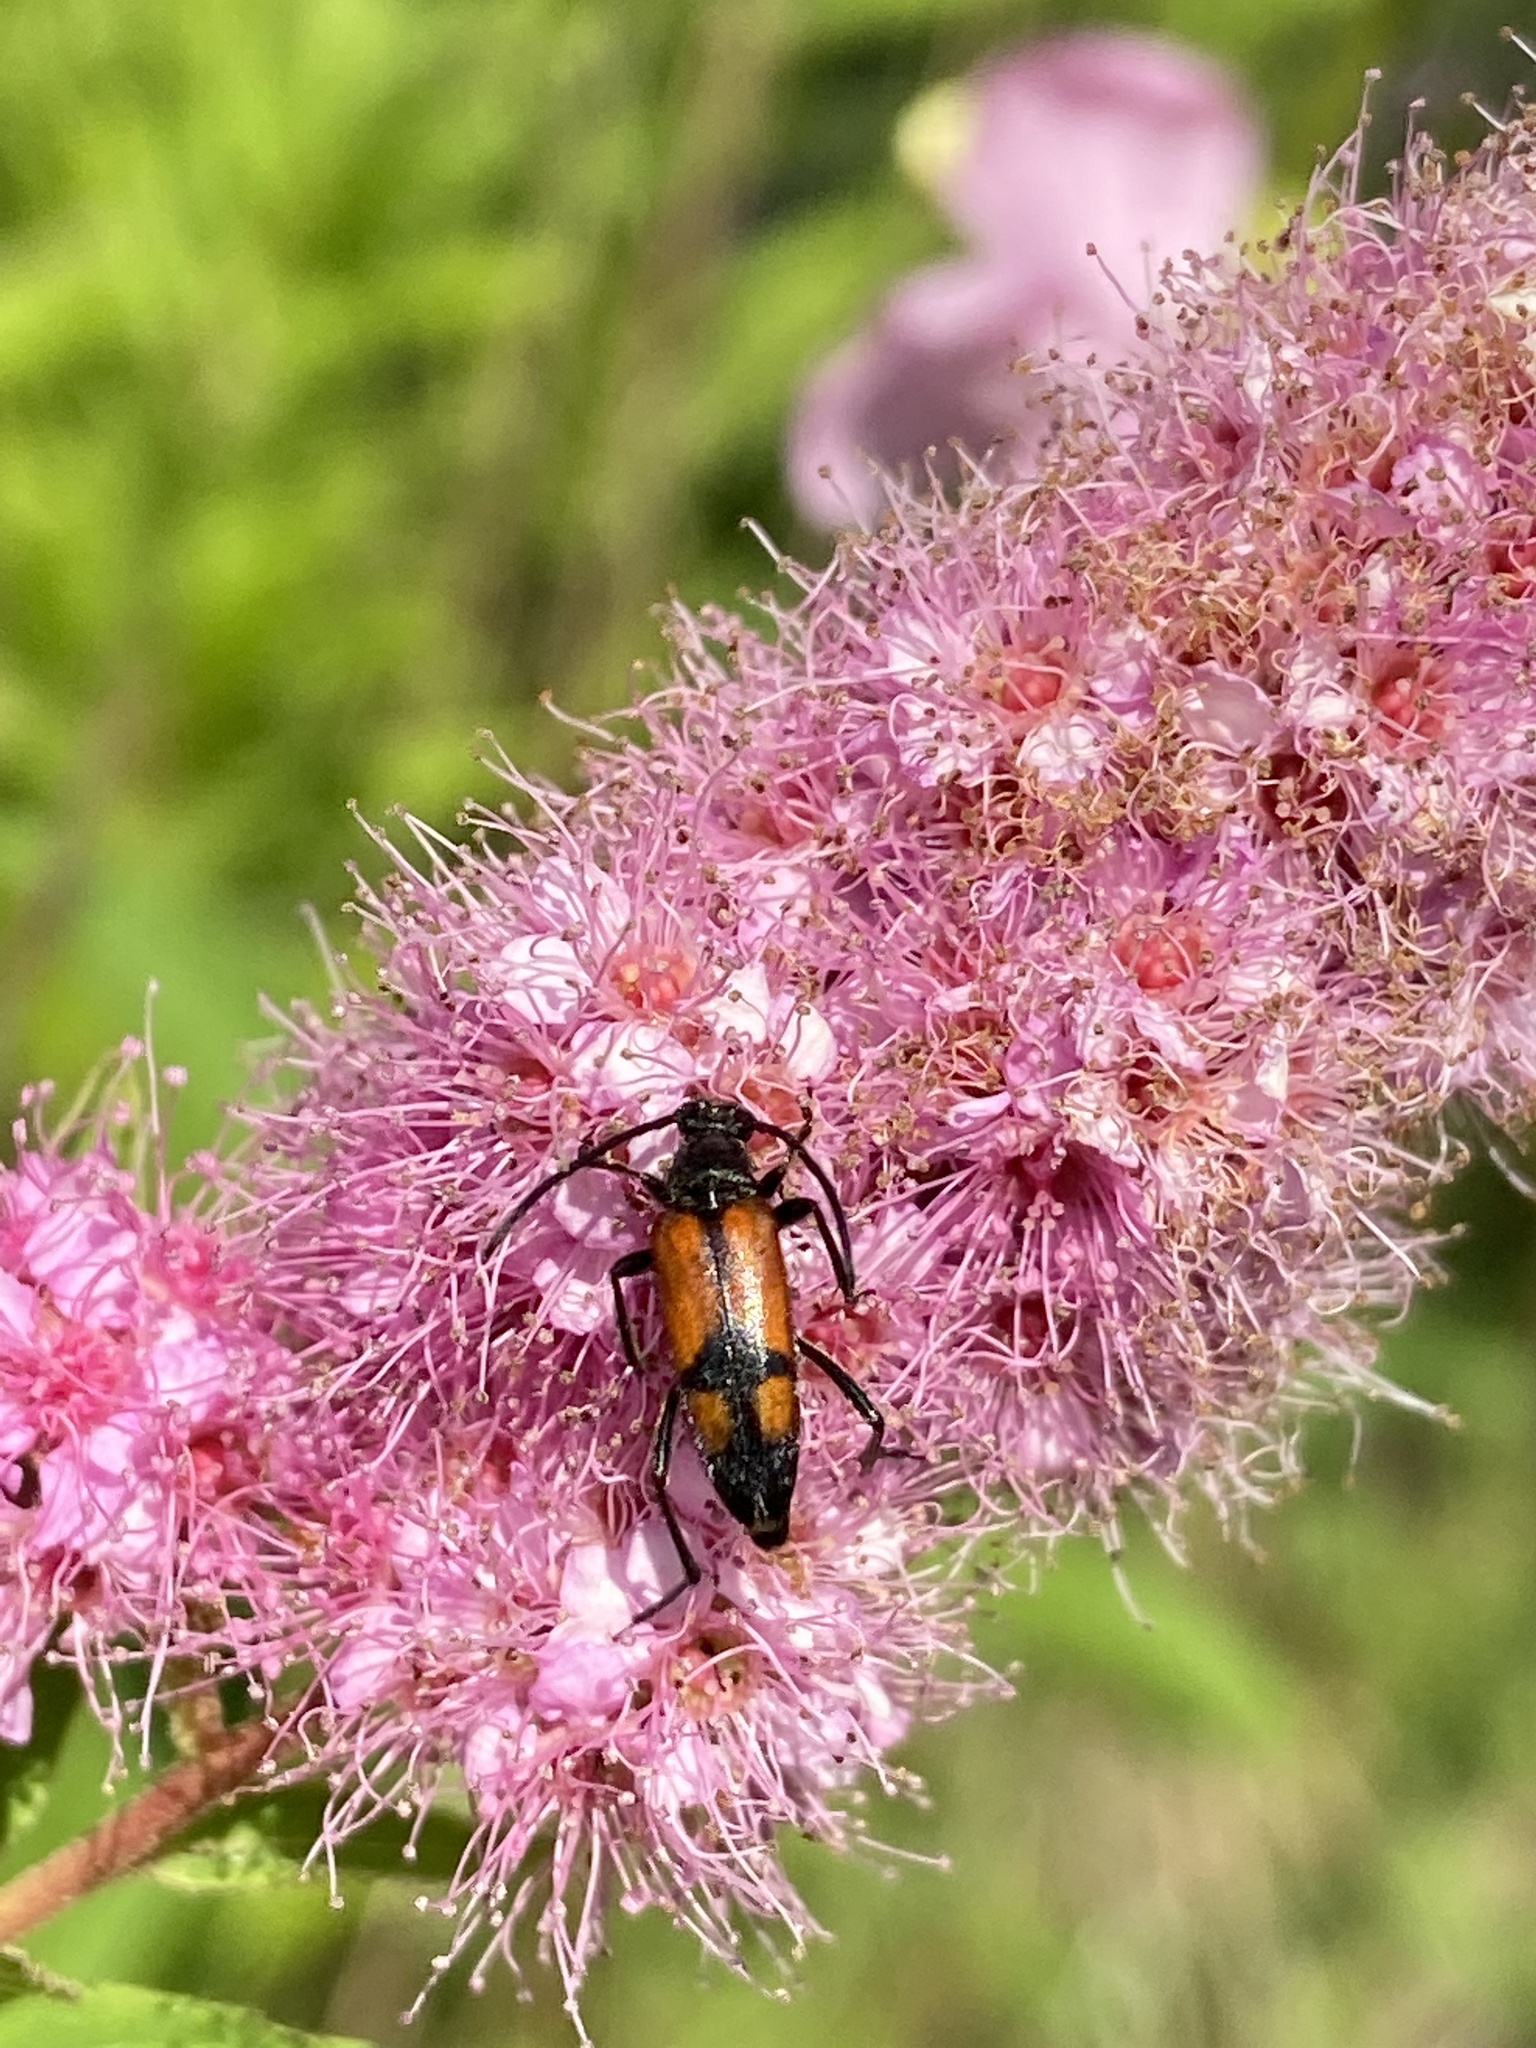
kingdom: Animalia
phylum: Arthropoda
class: Insecta
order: Coleoptera
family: Cerambycidae
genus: Stenurella
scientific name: Stenurella bifasciata
